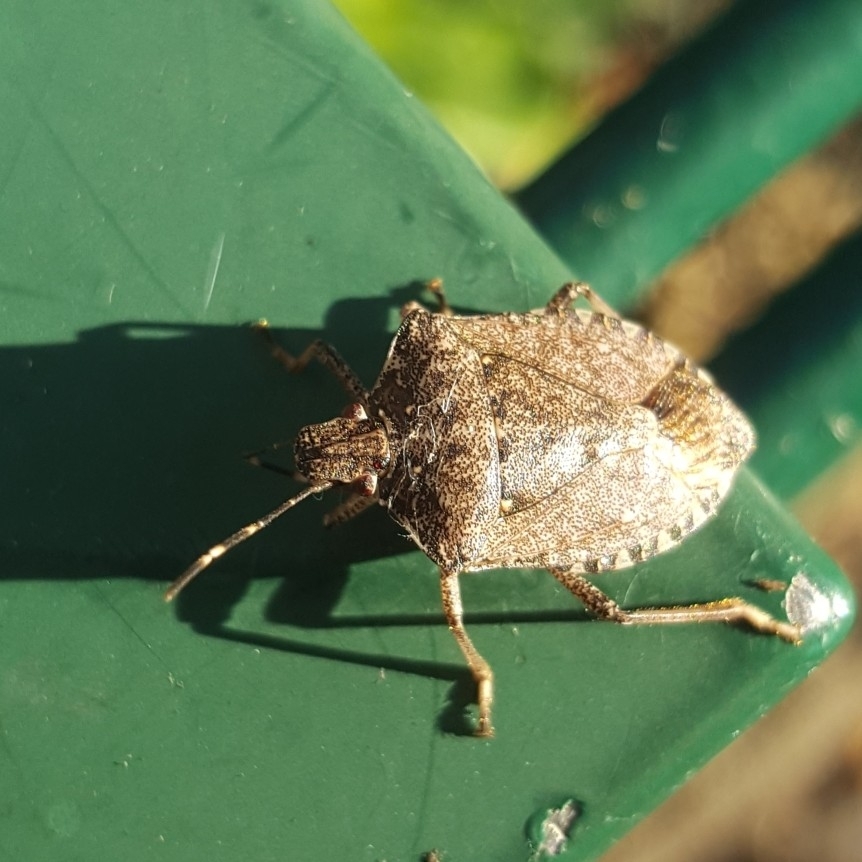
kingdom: Animalia
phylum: Arthropoda
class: Insecta
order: Hemiptera
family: Pentatomidae
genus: Halyomorpha
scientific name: Halyomorpha halys
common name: Brown marmorated stink bug
